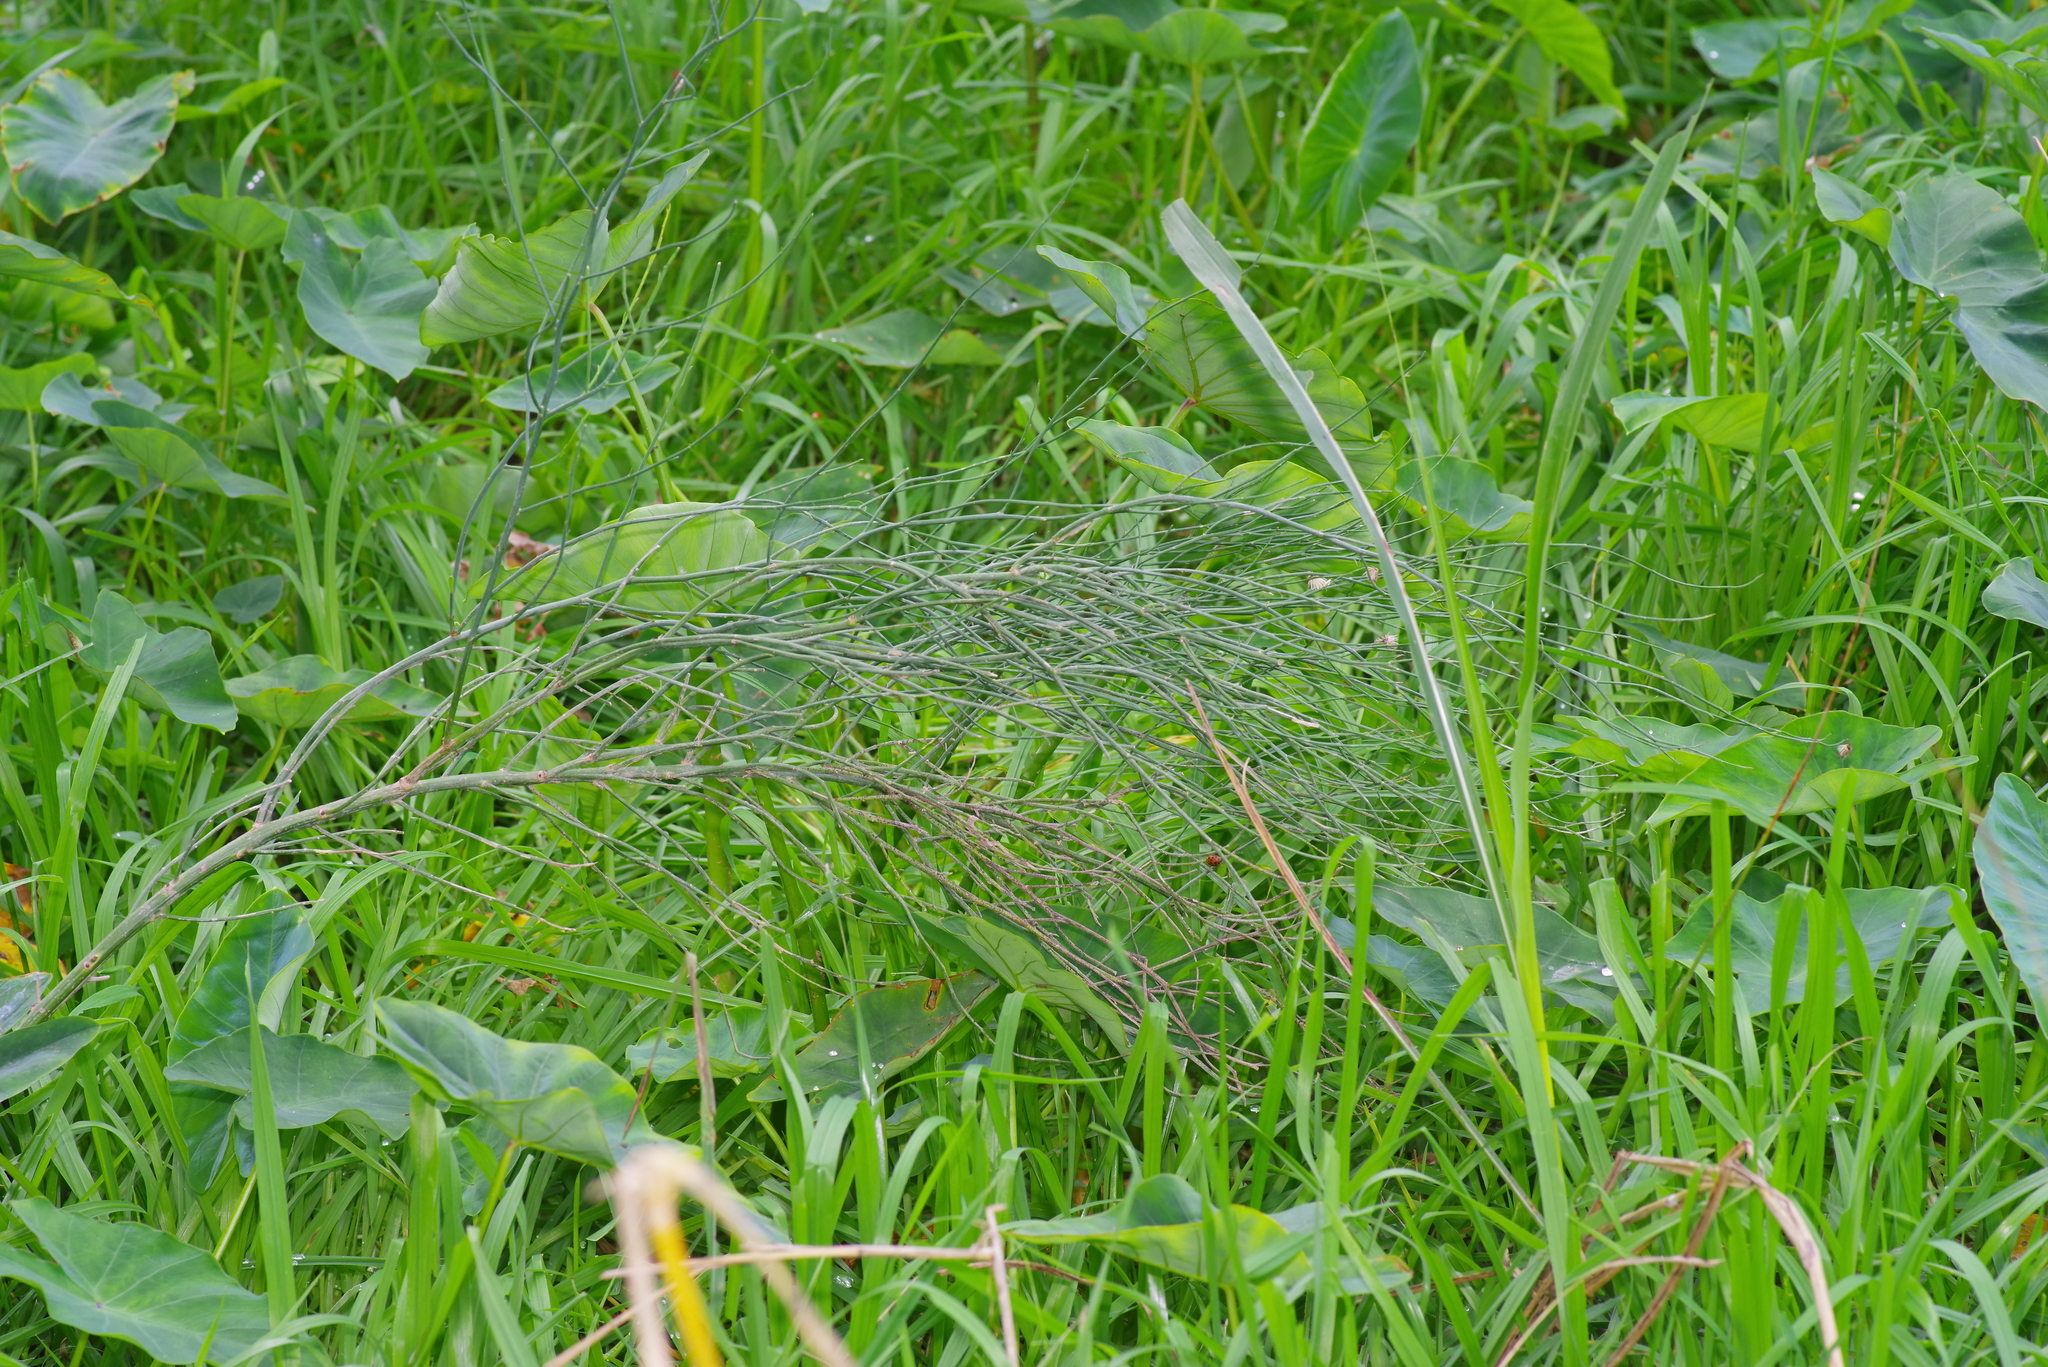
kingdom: Plantae
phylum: Tracheophyta
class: Magnoliopsida
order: Asterales
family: Asteraceae
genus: Chloracantha
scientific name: Chloracantha spinosa
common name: Mexican devilweed
